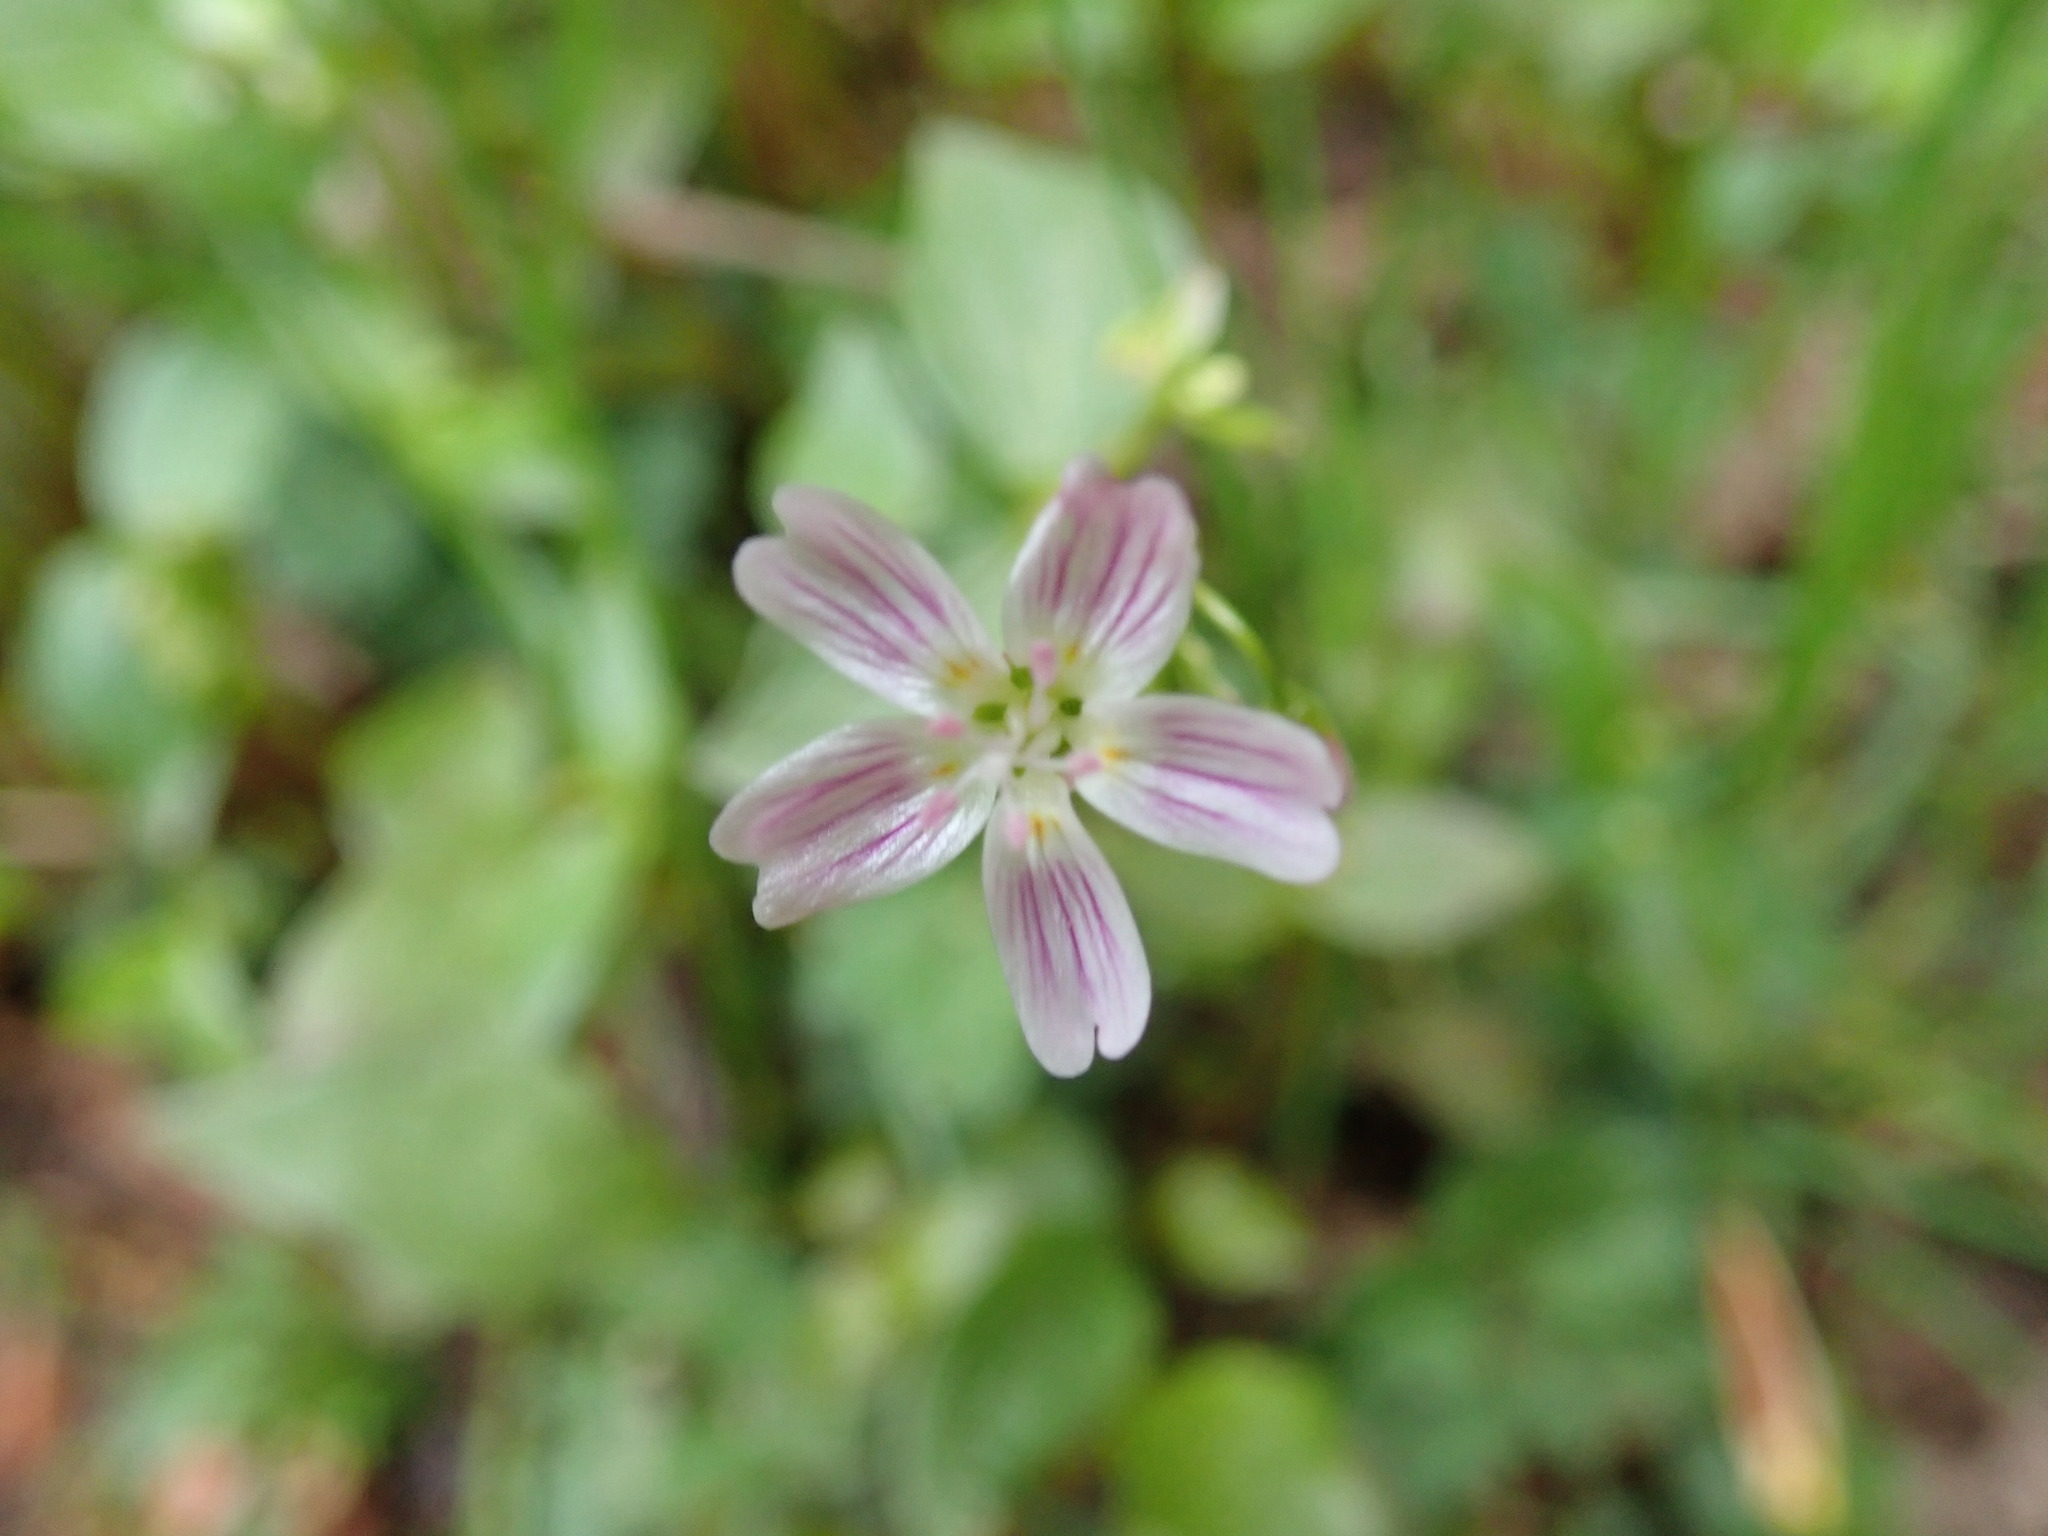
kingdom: Plantae
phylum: Tracheophyta
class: Magnoliopsida
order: Caryophyllales
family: Montiaceae
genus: Claytonia
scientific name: Claytonia sibirica
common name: Pink purslane
